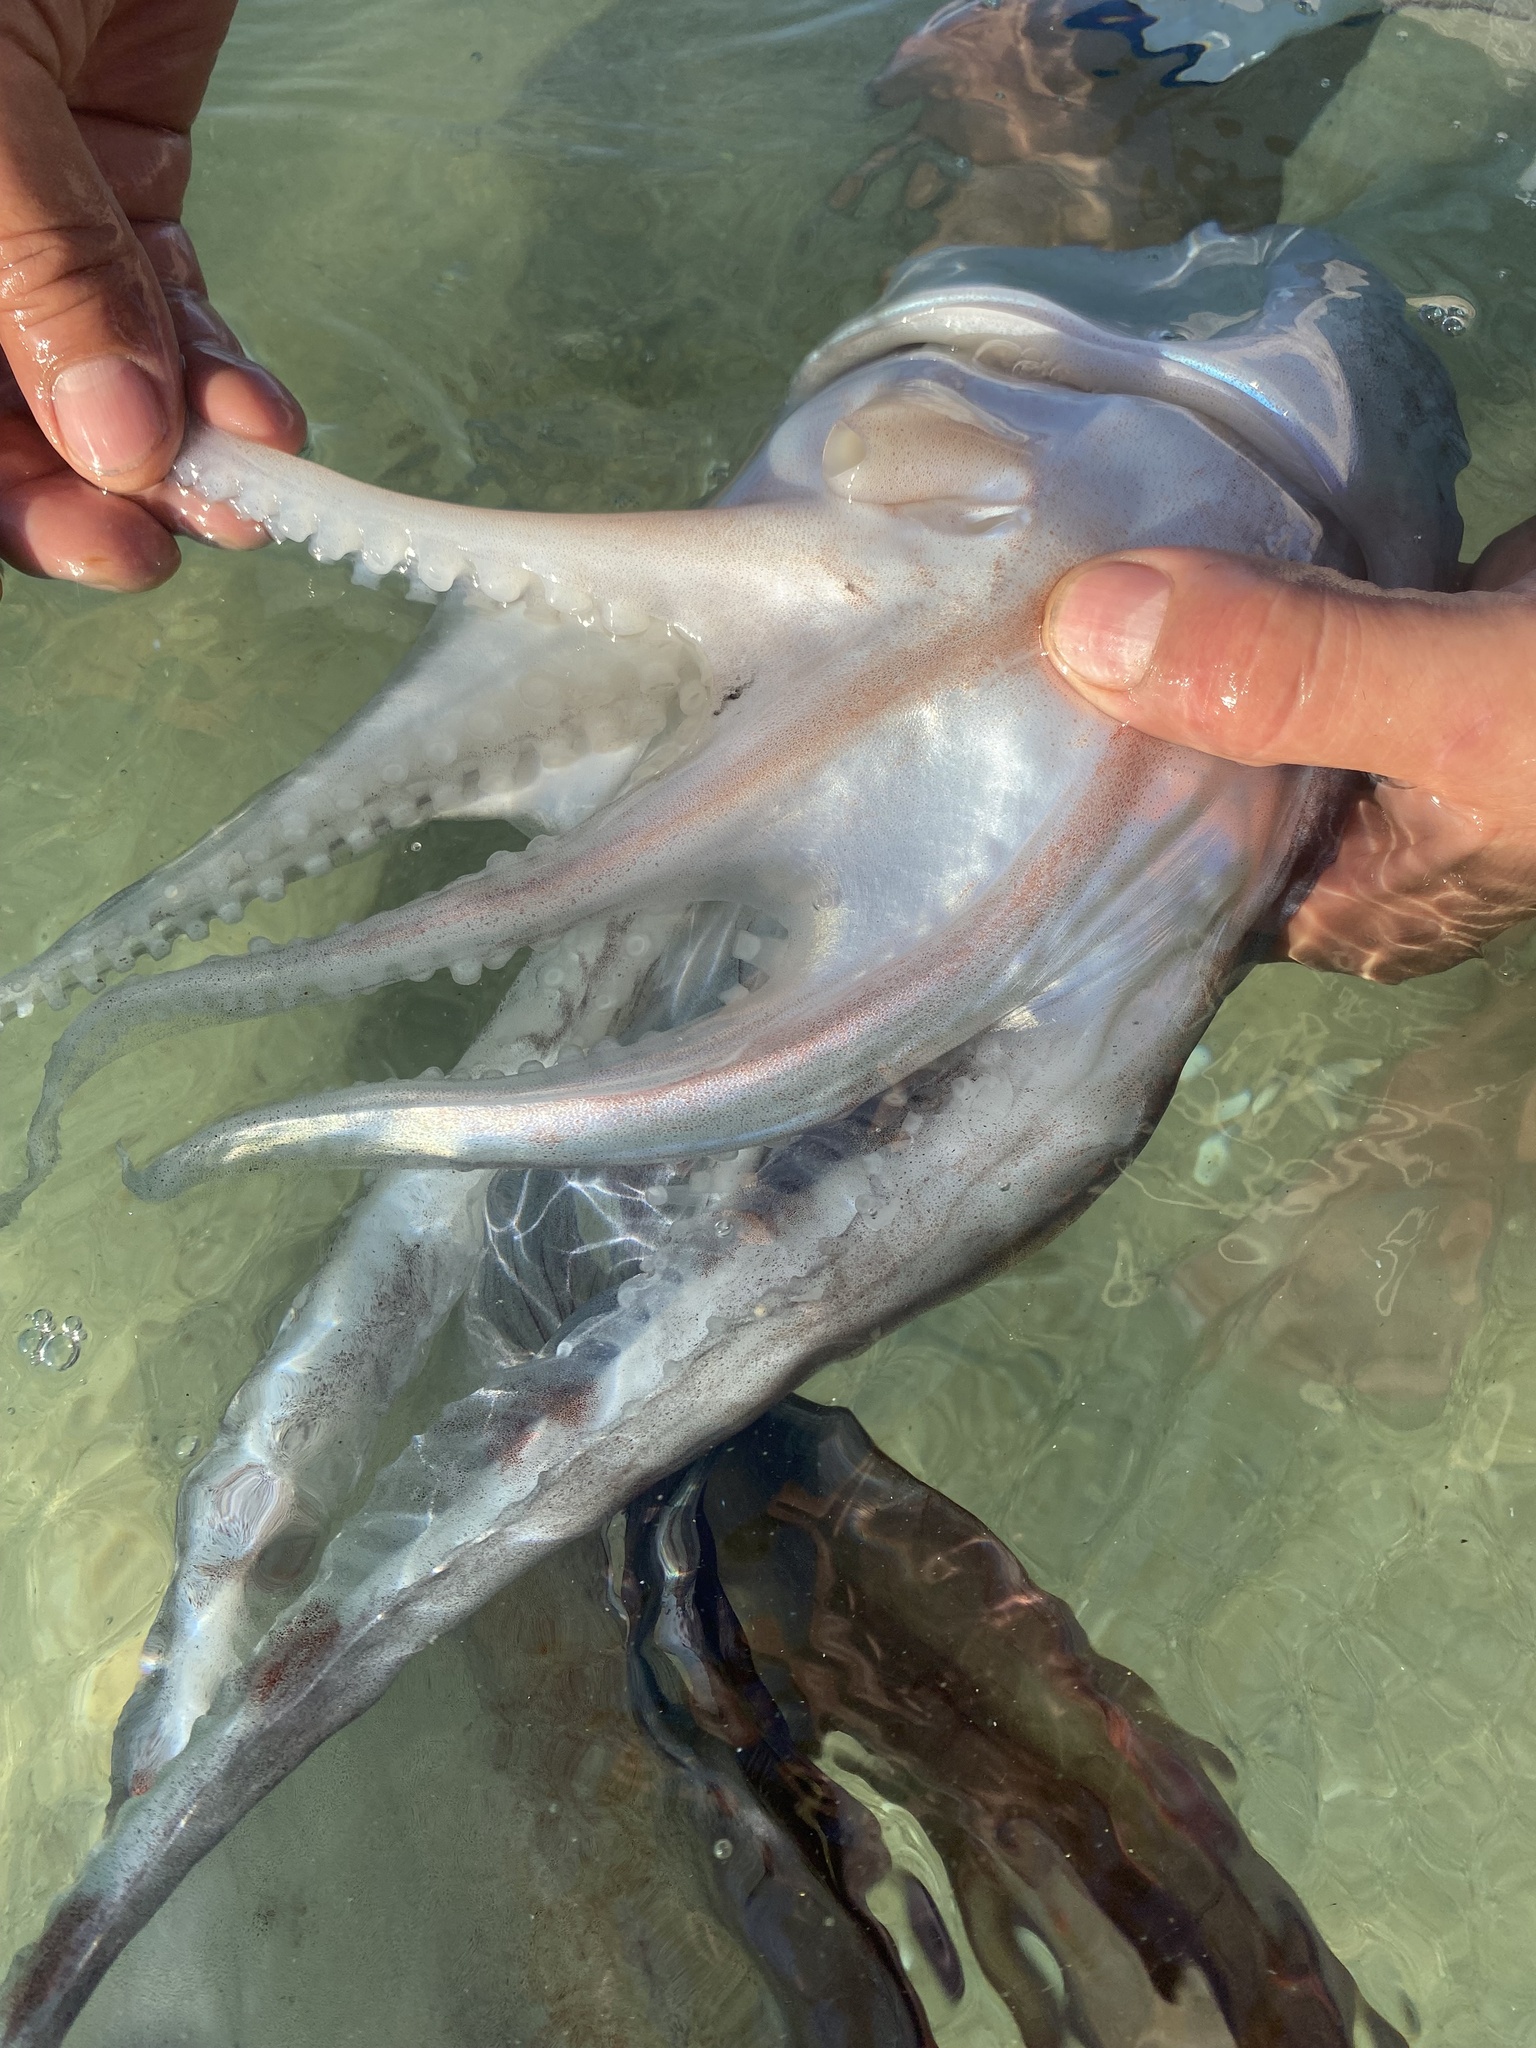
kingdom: Animalia
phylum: Mollusca
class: Cephalopoda
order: Octopoda
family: Tremoctopodidae
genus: Tremoctopus
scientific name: Tremoctopus gracilis
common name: Palmate octopus
